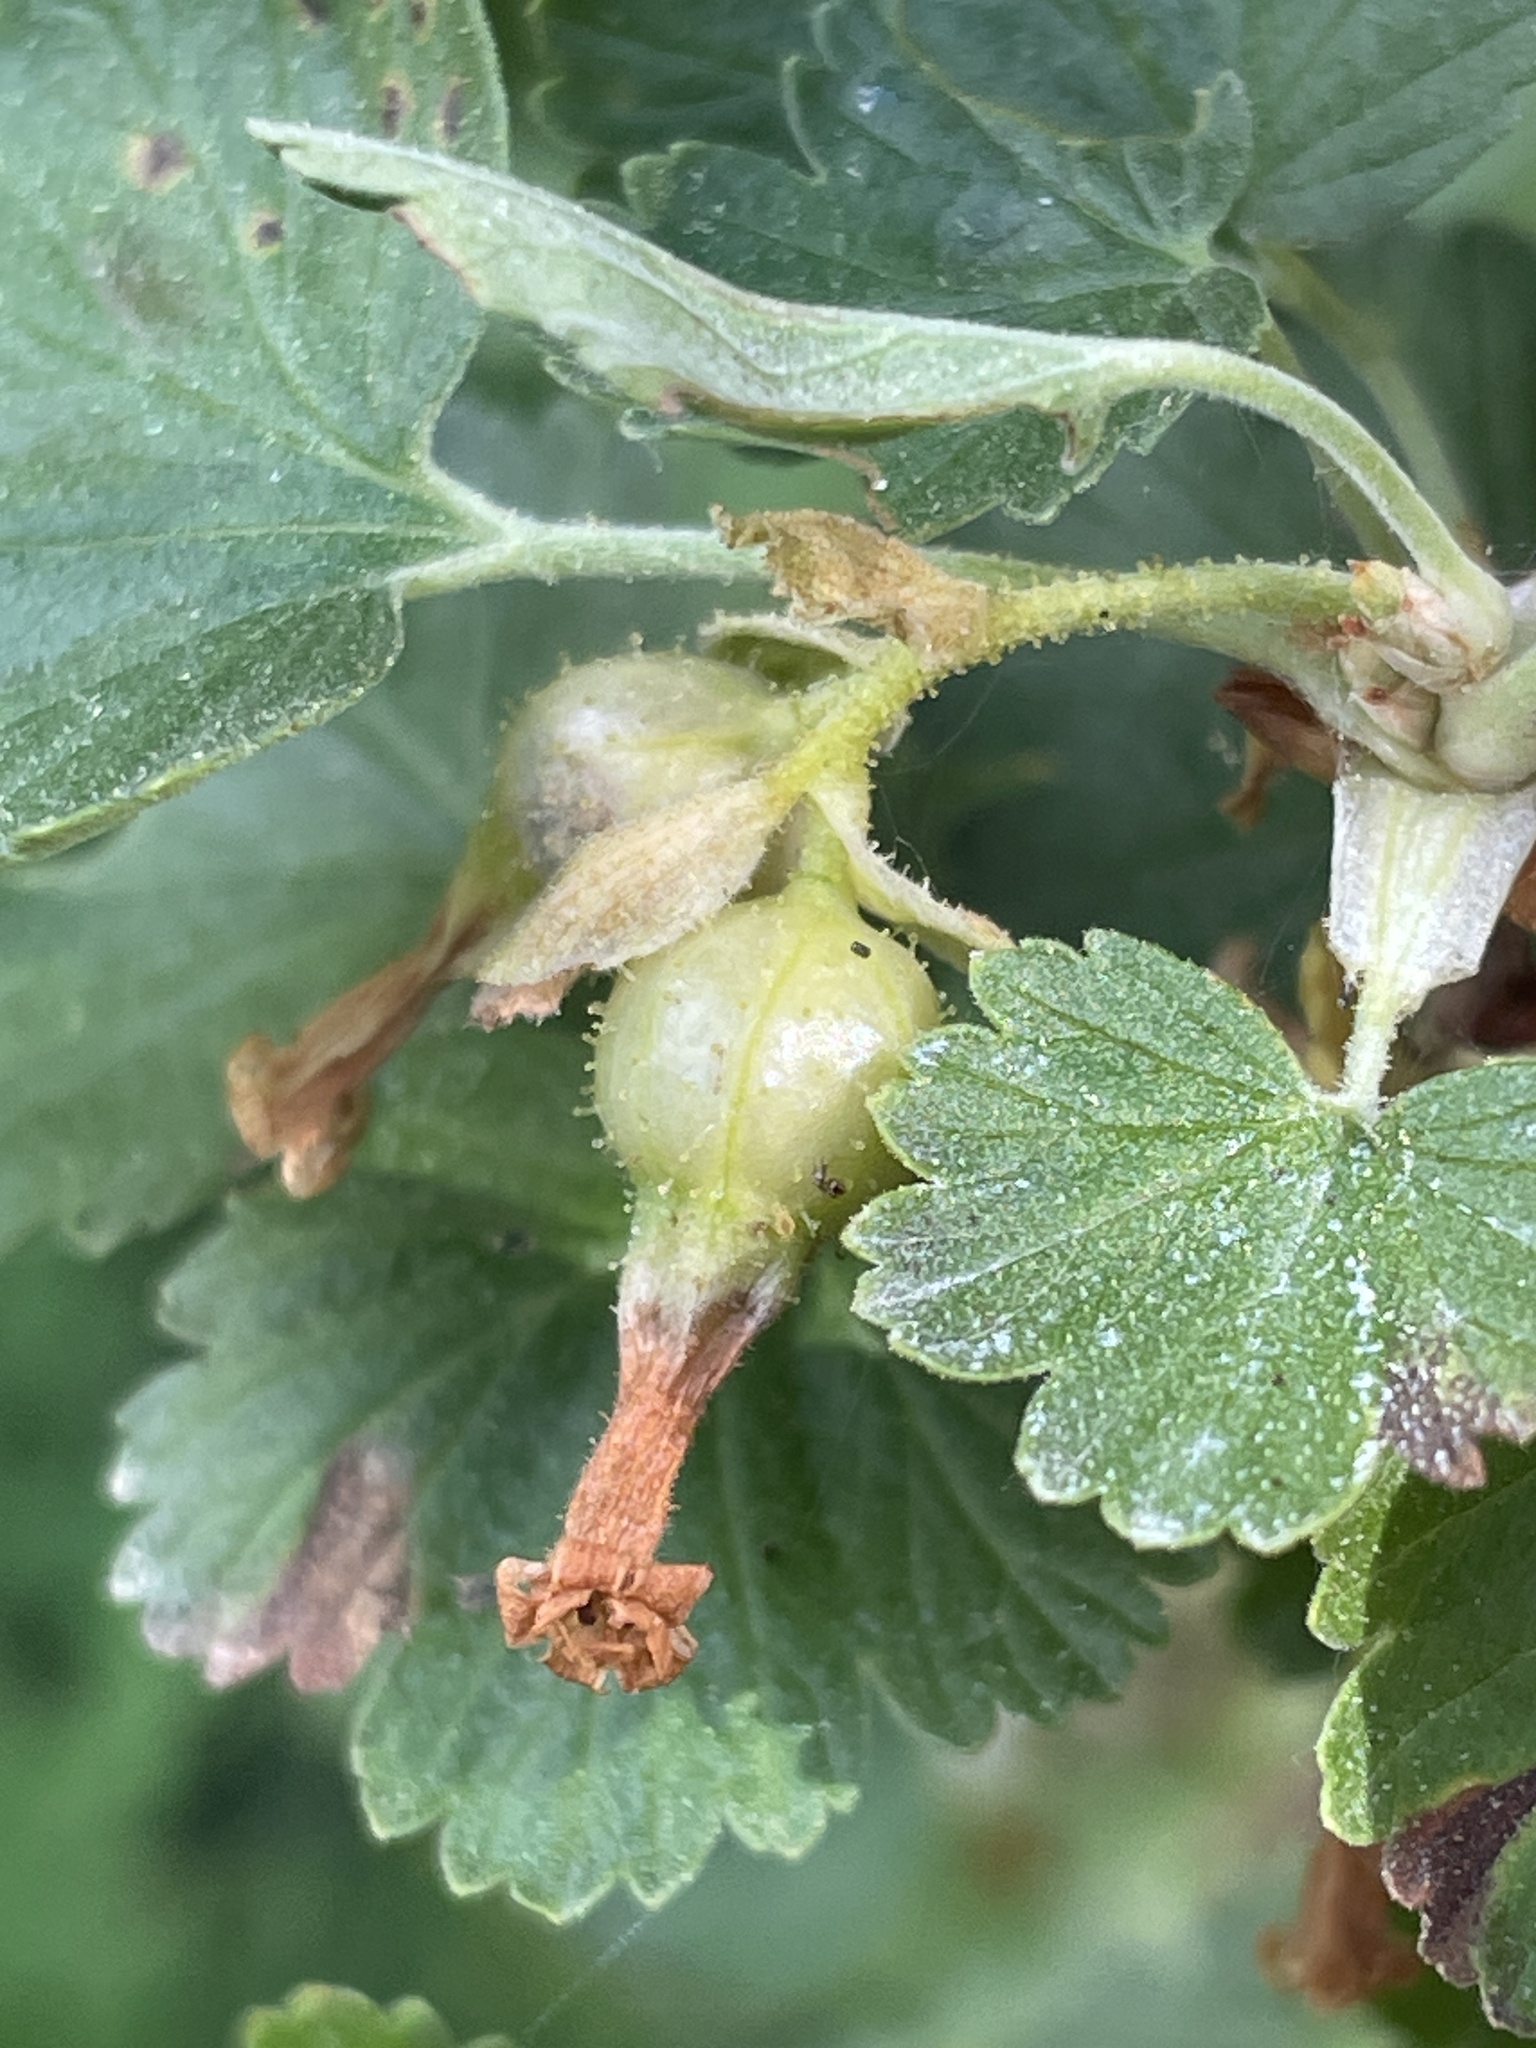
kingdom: Plantae
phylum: Tracheophyta
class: Magnoliopsida
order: Saxifragales
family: Grossulariaceae
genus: Ribes
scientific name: Ribes cereum
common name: Wax currant
